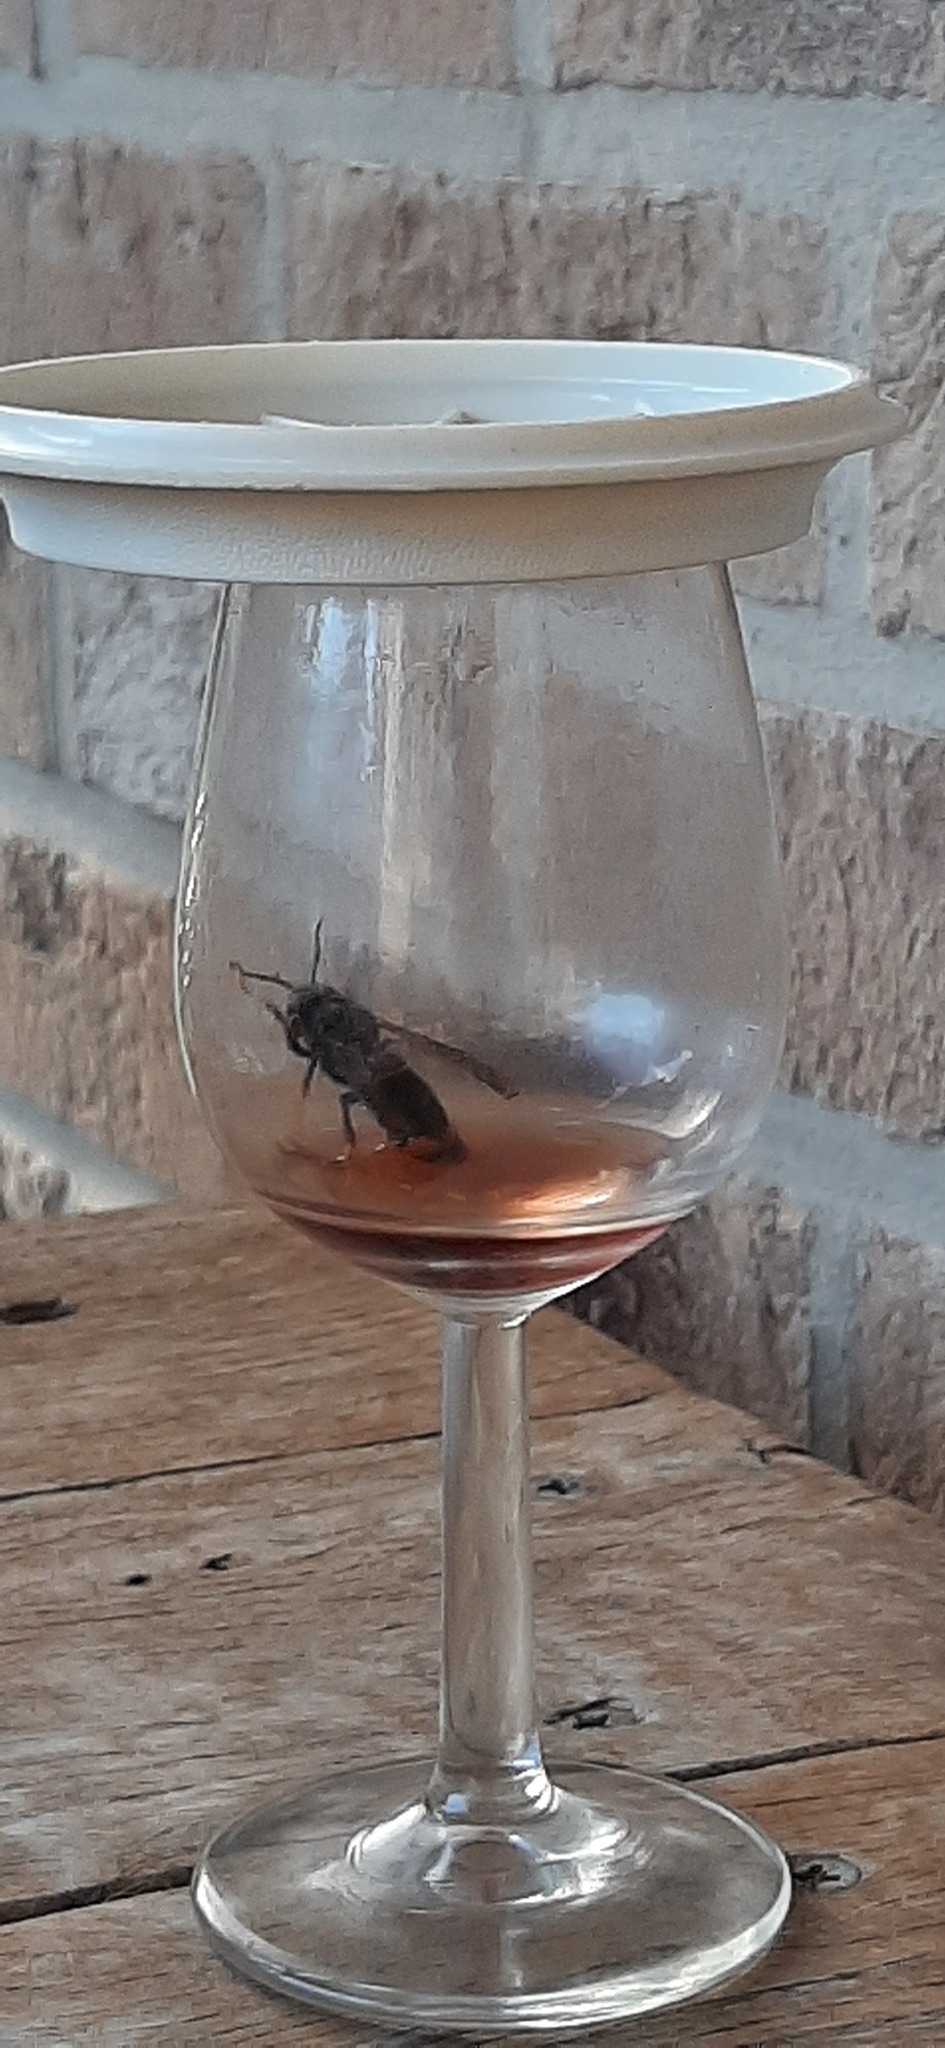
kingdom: Animalia
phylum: Arthropoda
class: Insecta
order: Hymenoptera
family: Vespidae
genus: Vespa
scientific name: Vespa velutina
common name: Asian hornet
